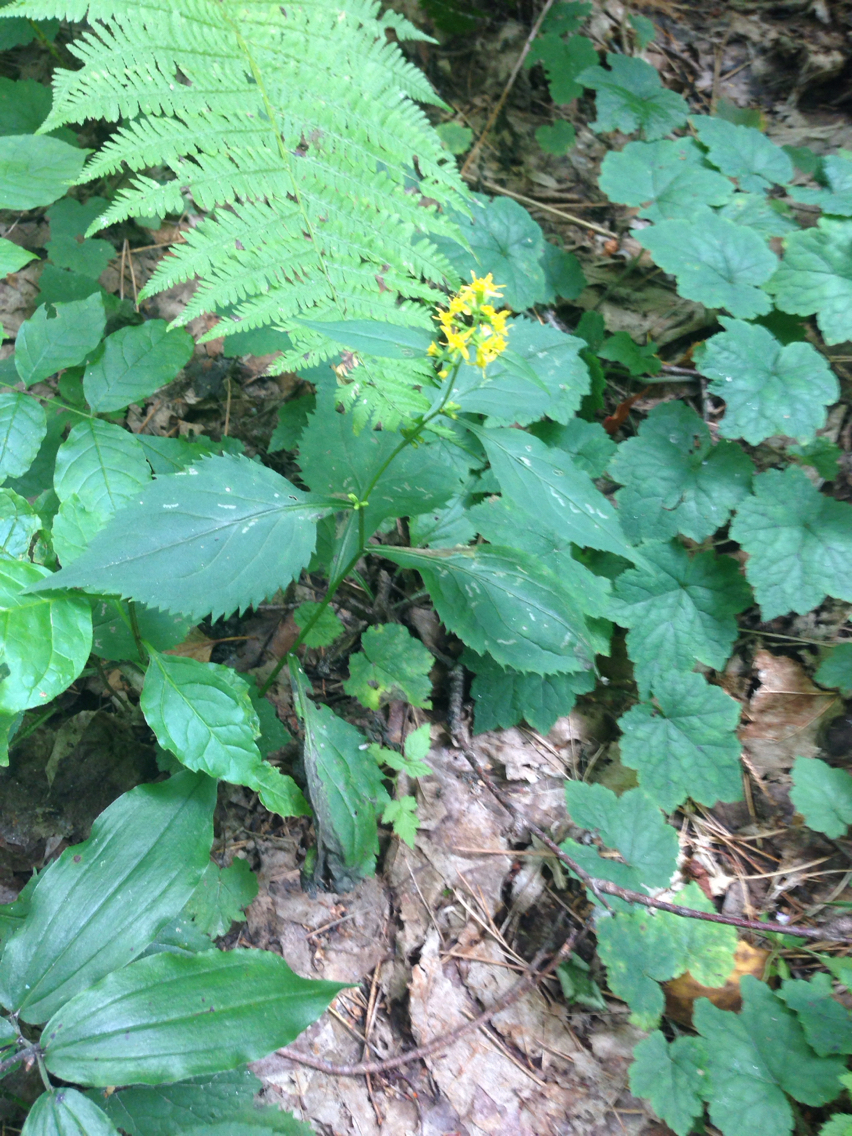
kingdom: Plantae
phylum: Tracheophyta
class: Magnoliopsida
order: Asterales
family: Asteraceae
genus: Solidago
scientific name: Solidago flexicaulis
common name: Zig-zag goldenrod
